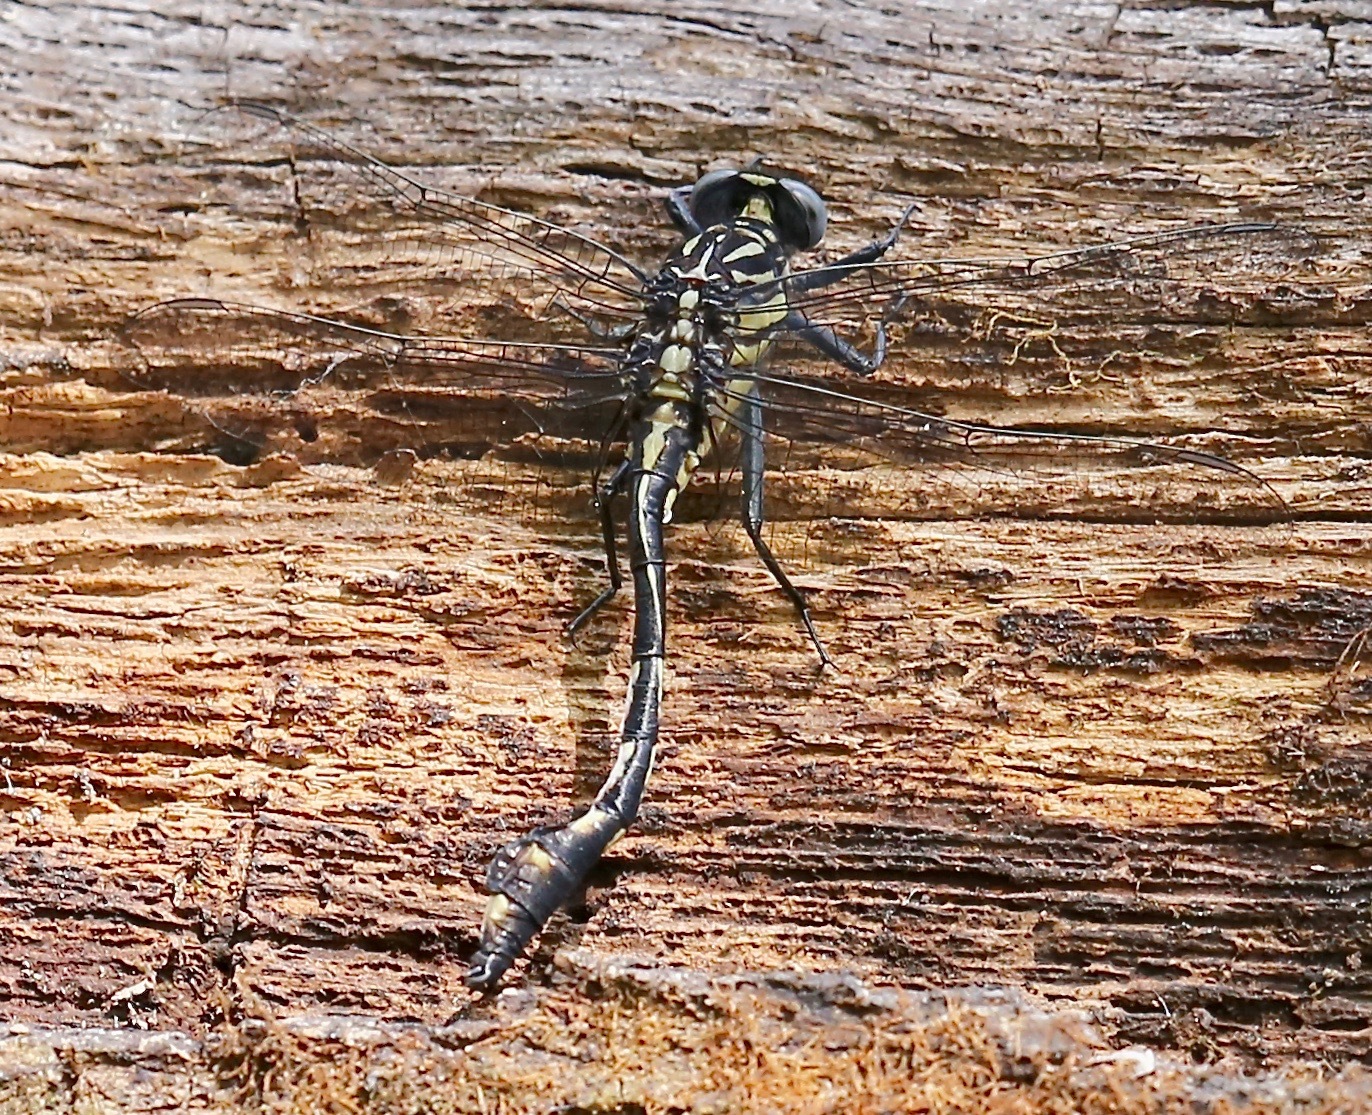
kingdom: Animalia
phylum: Arthropoda
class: Insecta
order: Odonata
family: Gomphidae
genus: Gomphurus
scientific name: Gomphurus dilatatus
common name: Blackwater clubtail
